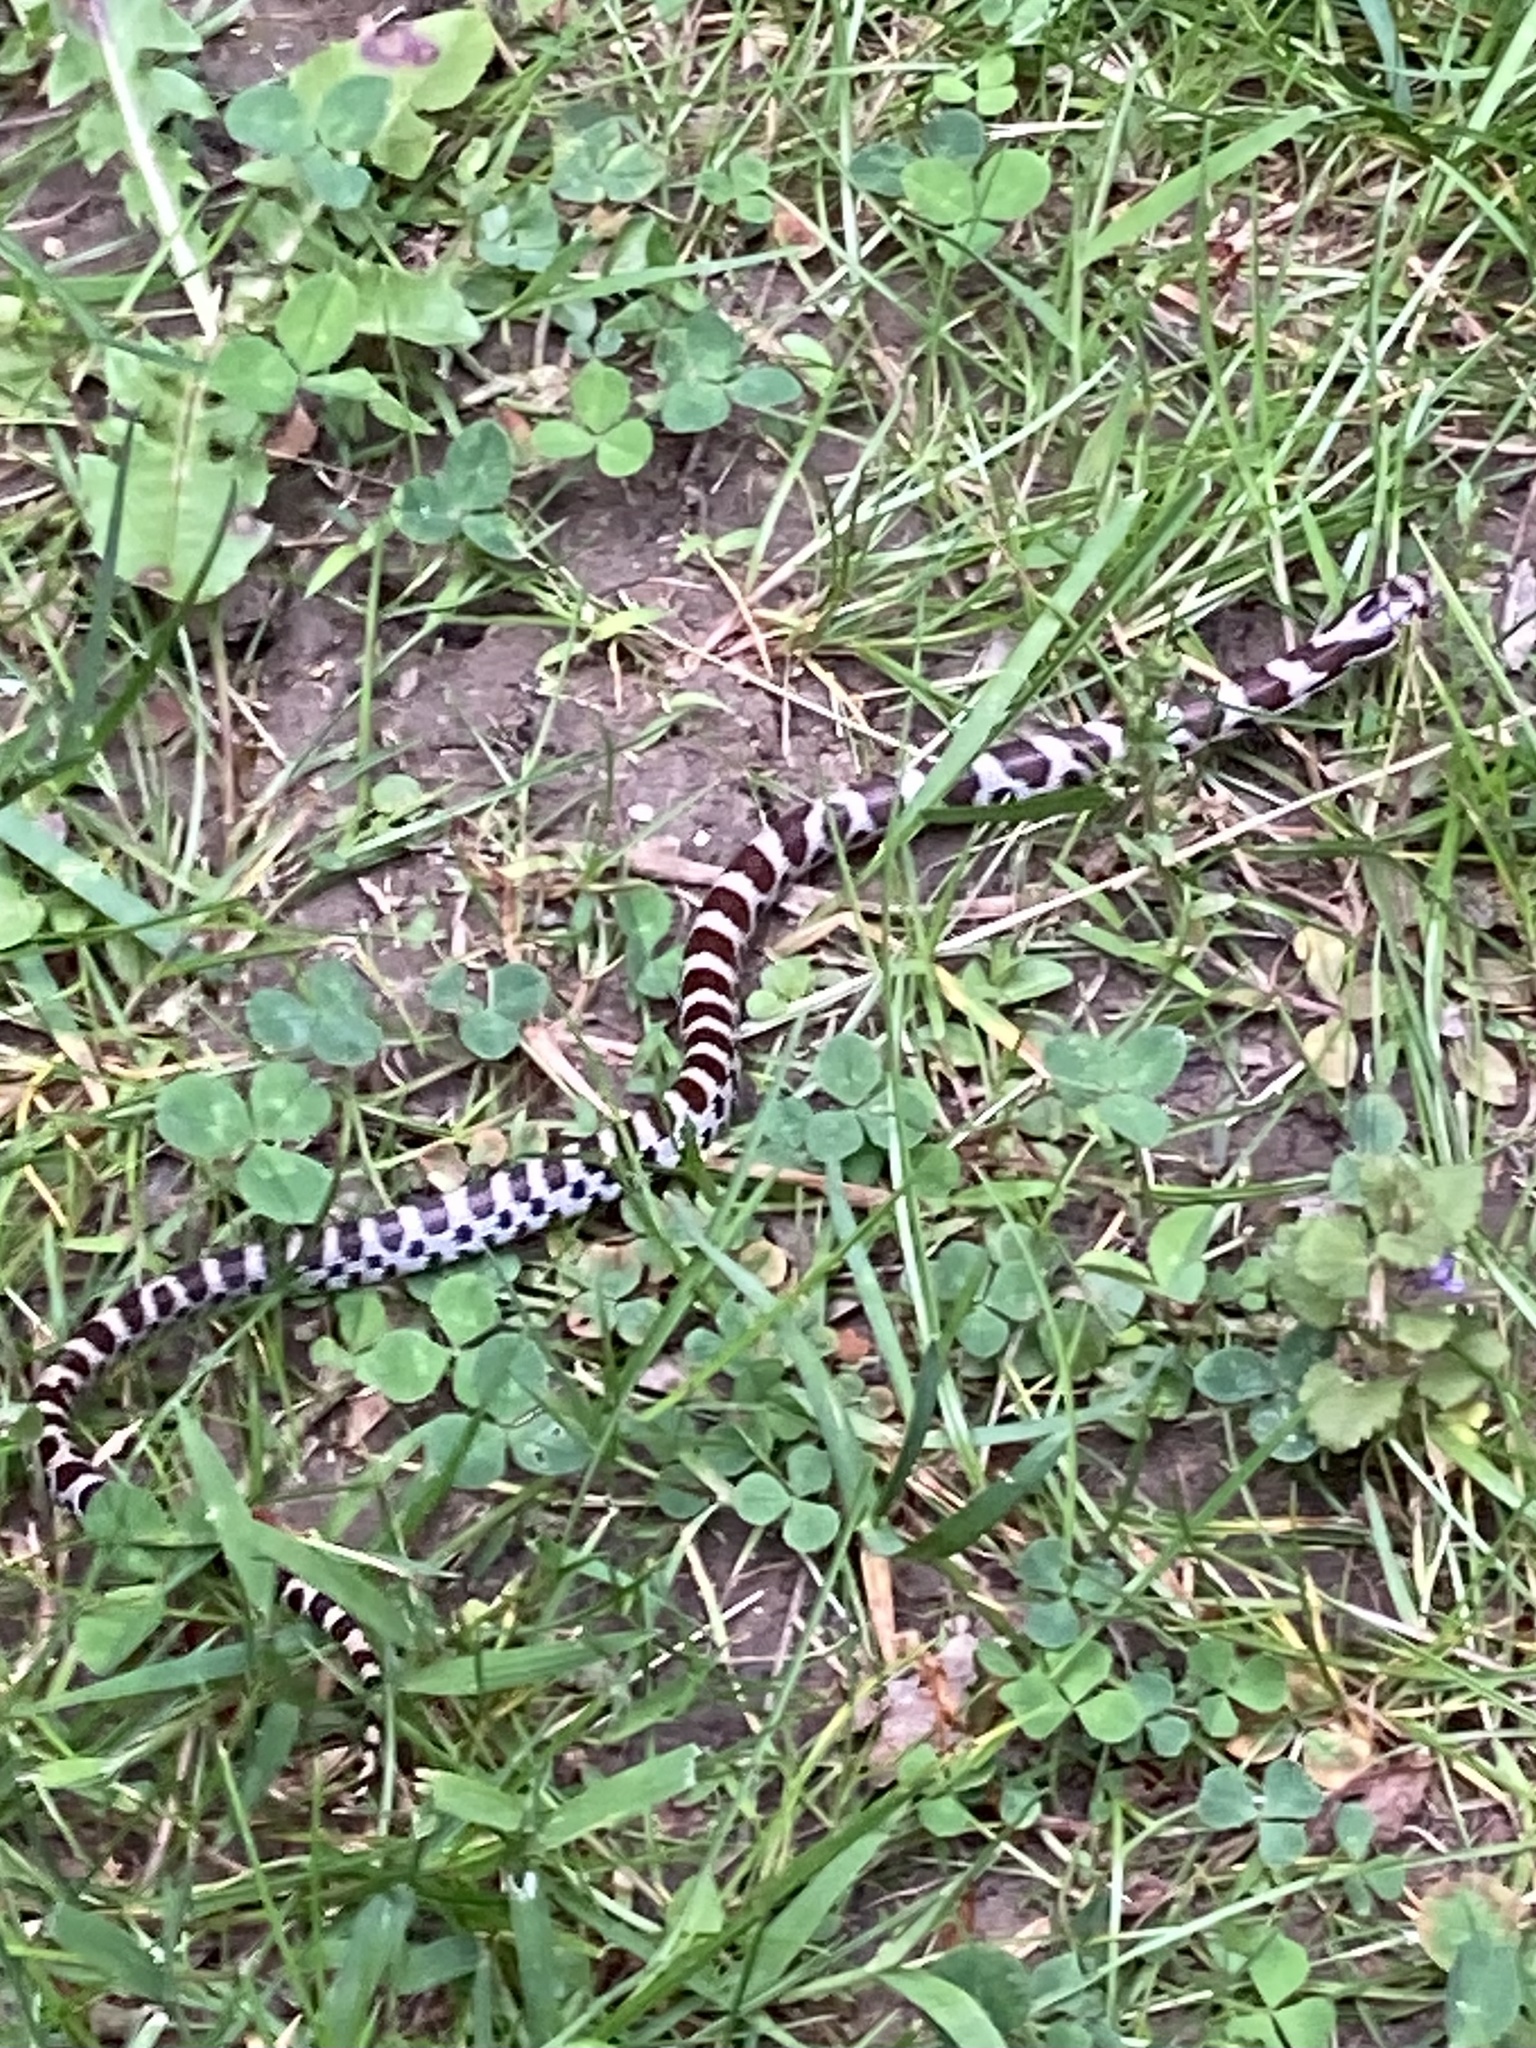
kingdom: Animalia
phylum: Chordata
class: Squamata
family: Colubridae
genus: Lampropeltis
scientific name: Lampropeltis triangulum
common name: Eastern milksnake
